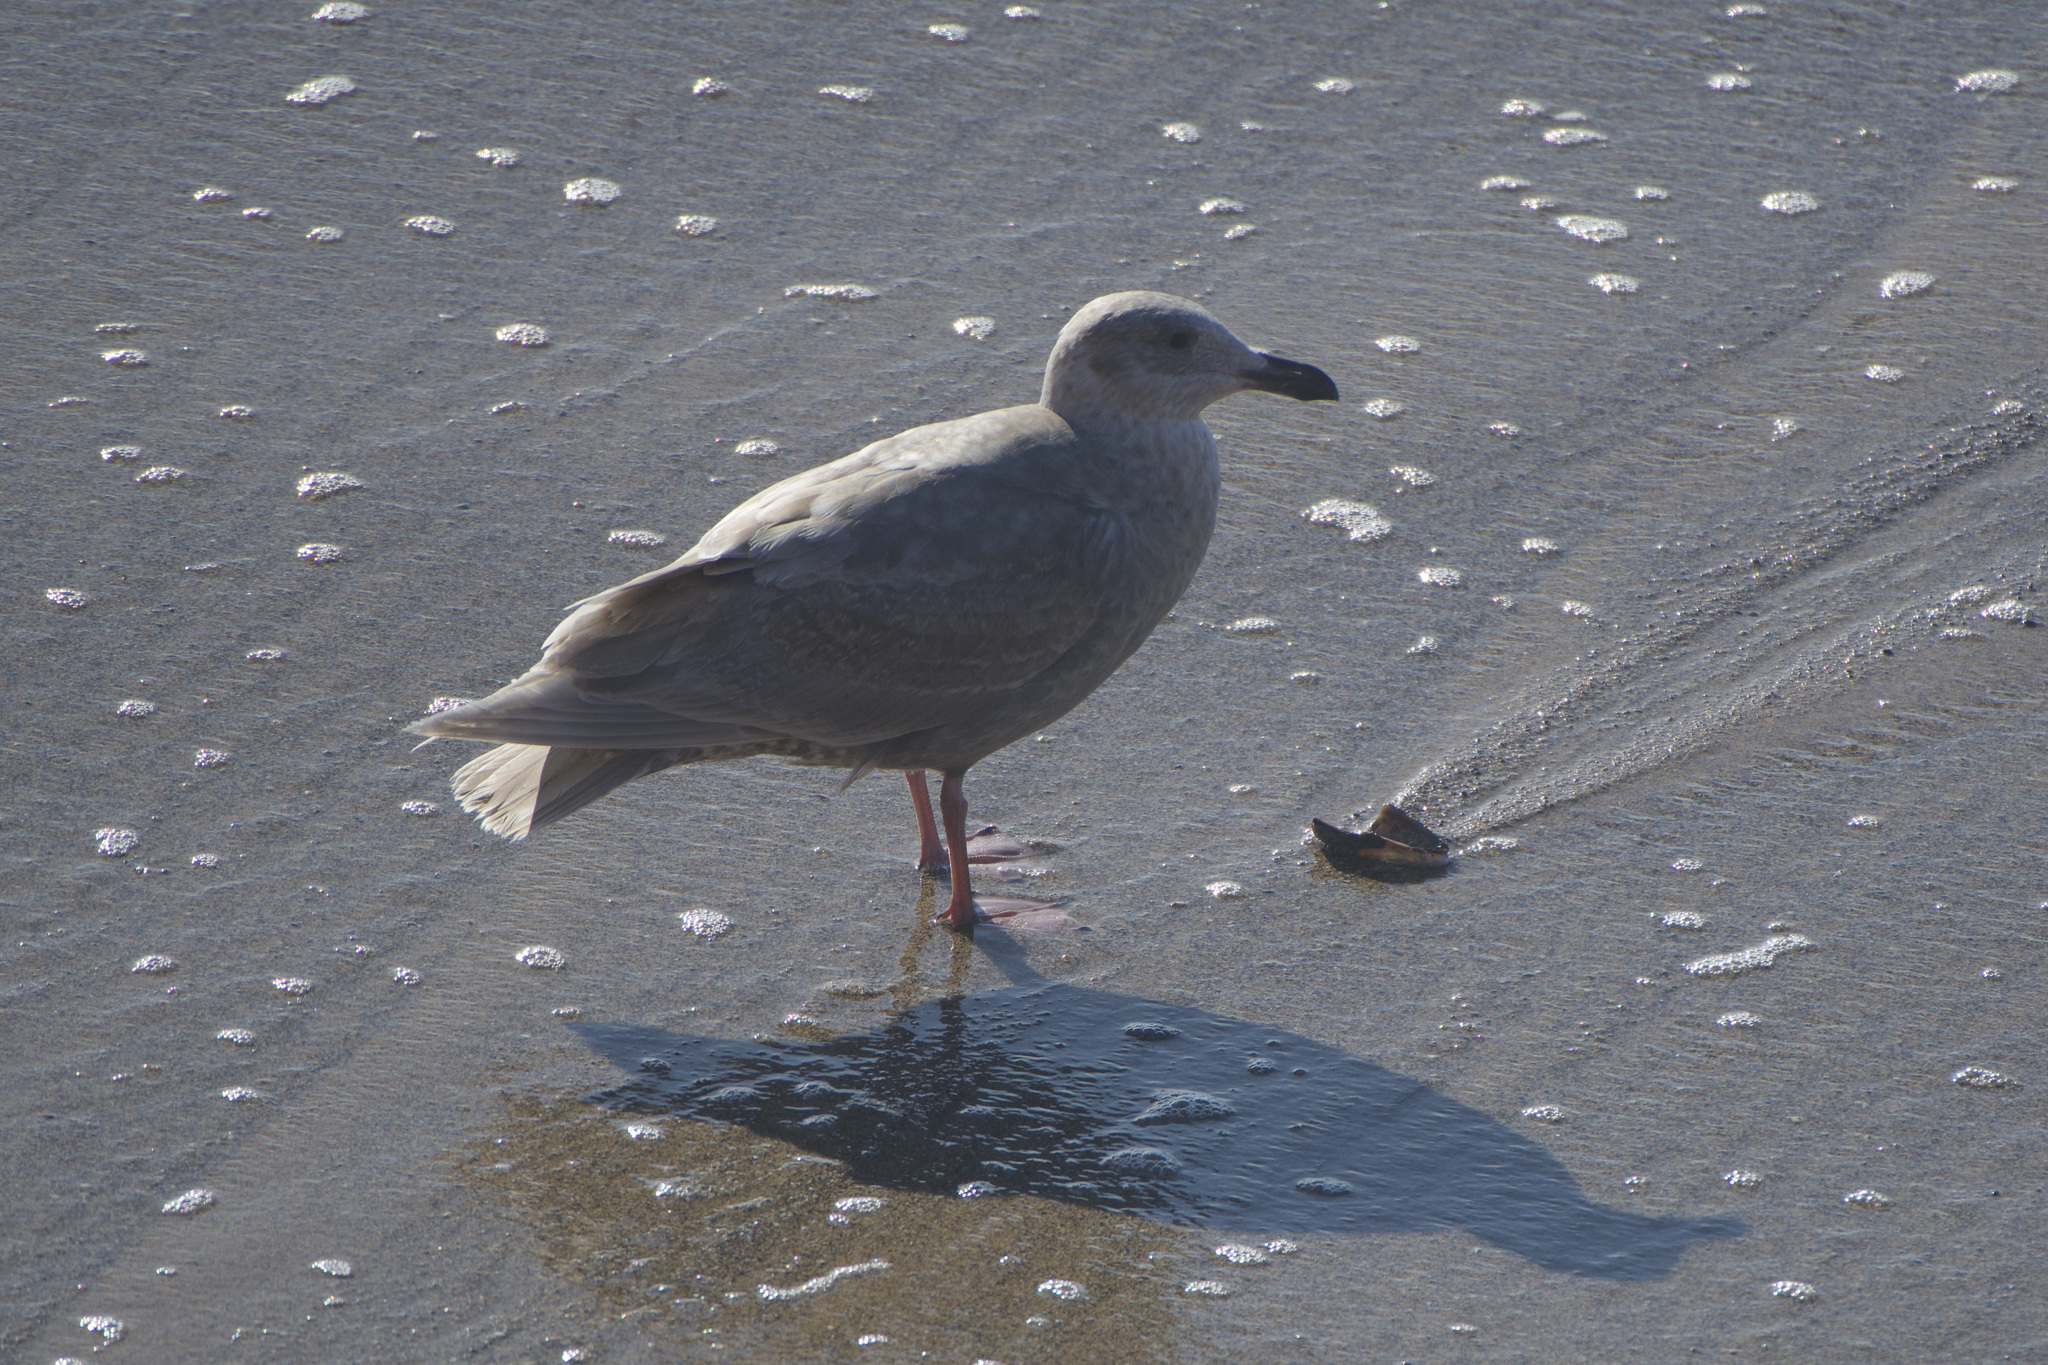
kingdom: Animalia
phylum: Chordata
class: Aves
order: Charadriiformes
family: Laridae
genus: Larus
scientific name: Larus glaucescens
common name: Glaucous-winged gull
